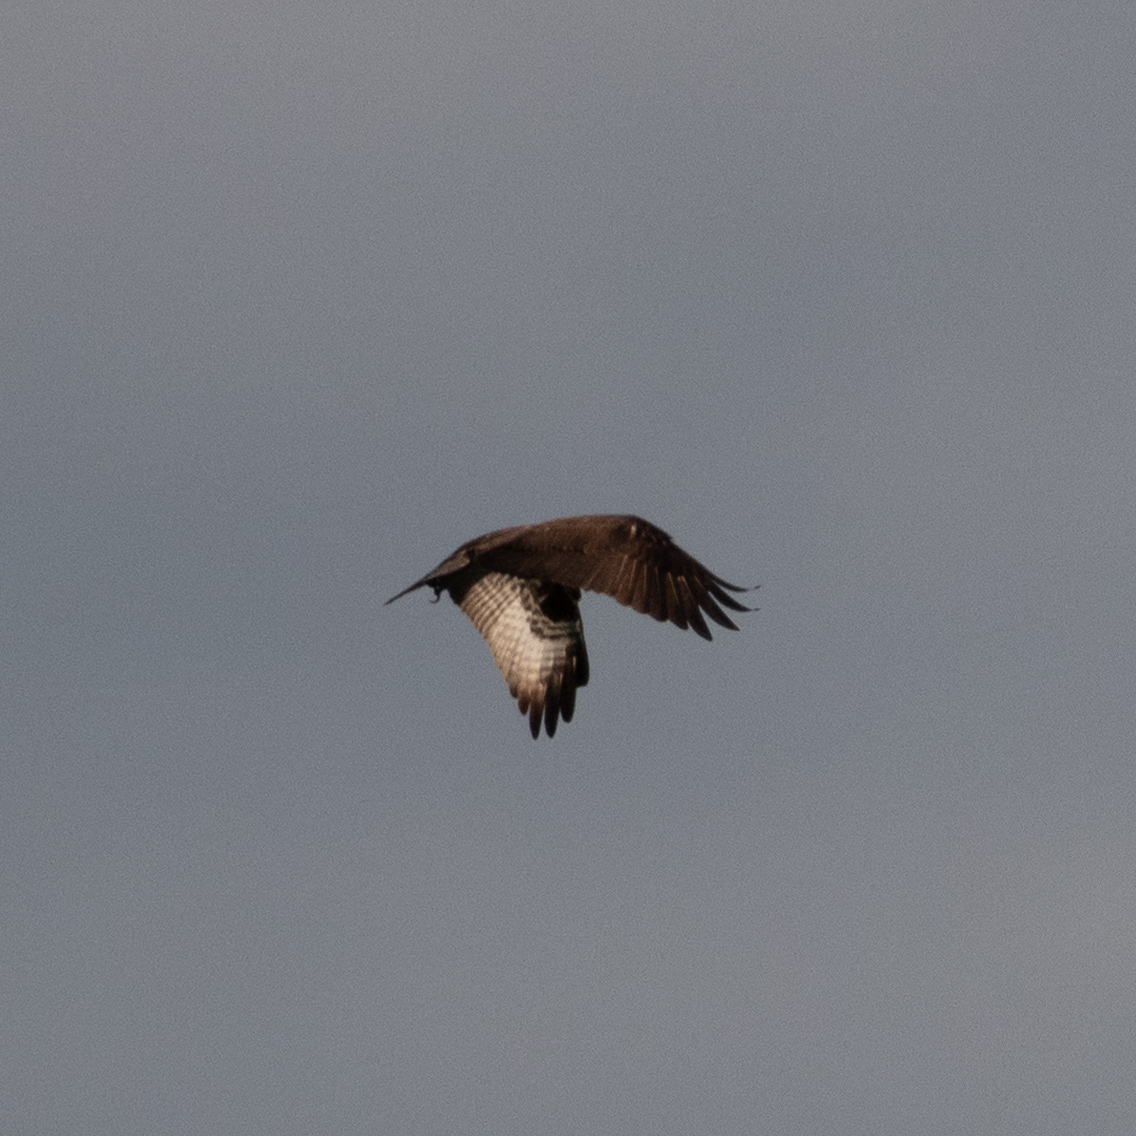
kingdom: Animalia
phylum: Chordata
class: Aves
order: Accipitriformes
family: Pandionidae
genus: Pandion
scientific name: Pandion haliaetus
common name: Osprey
